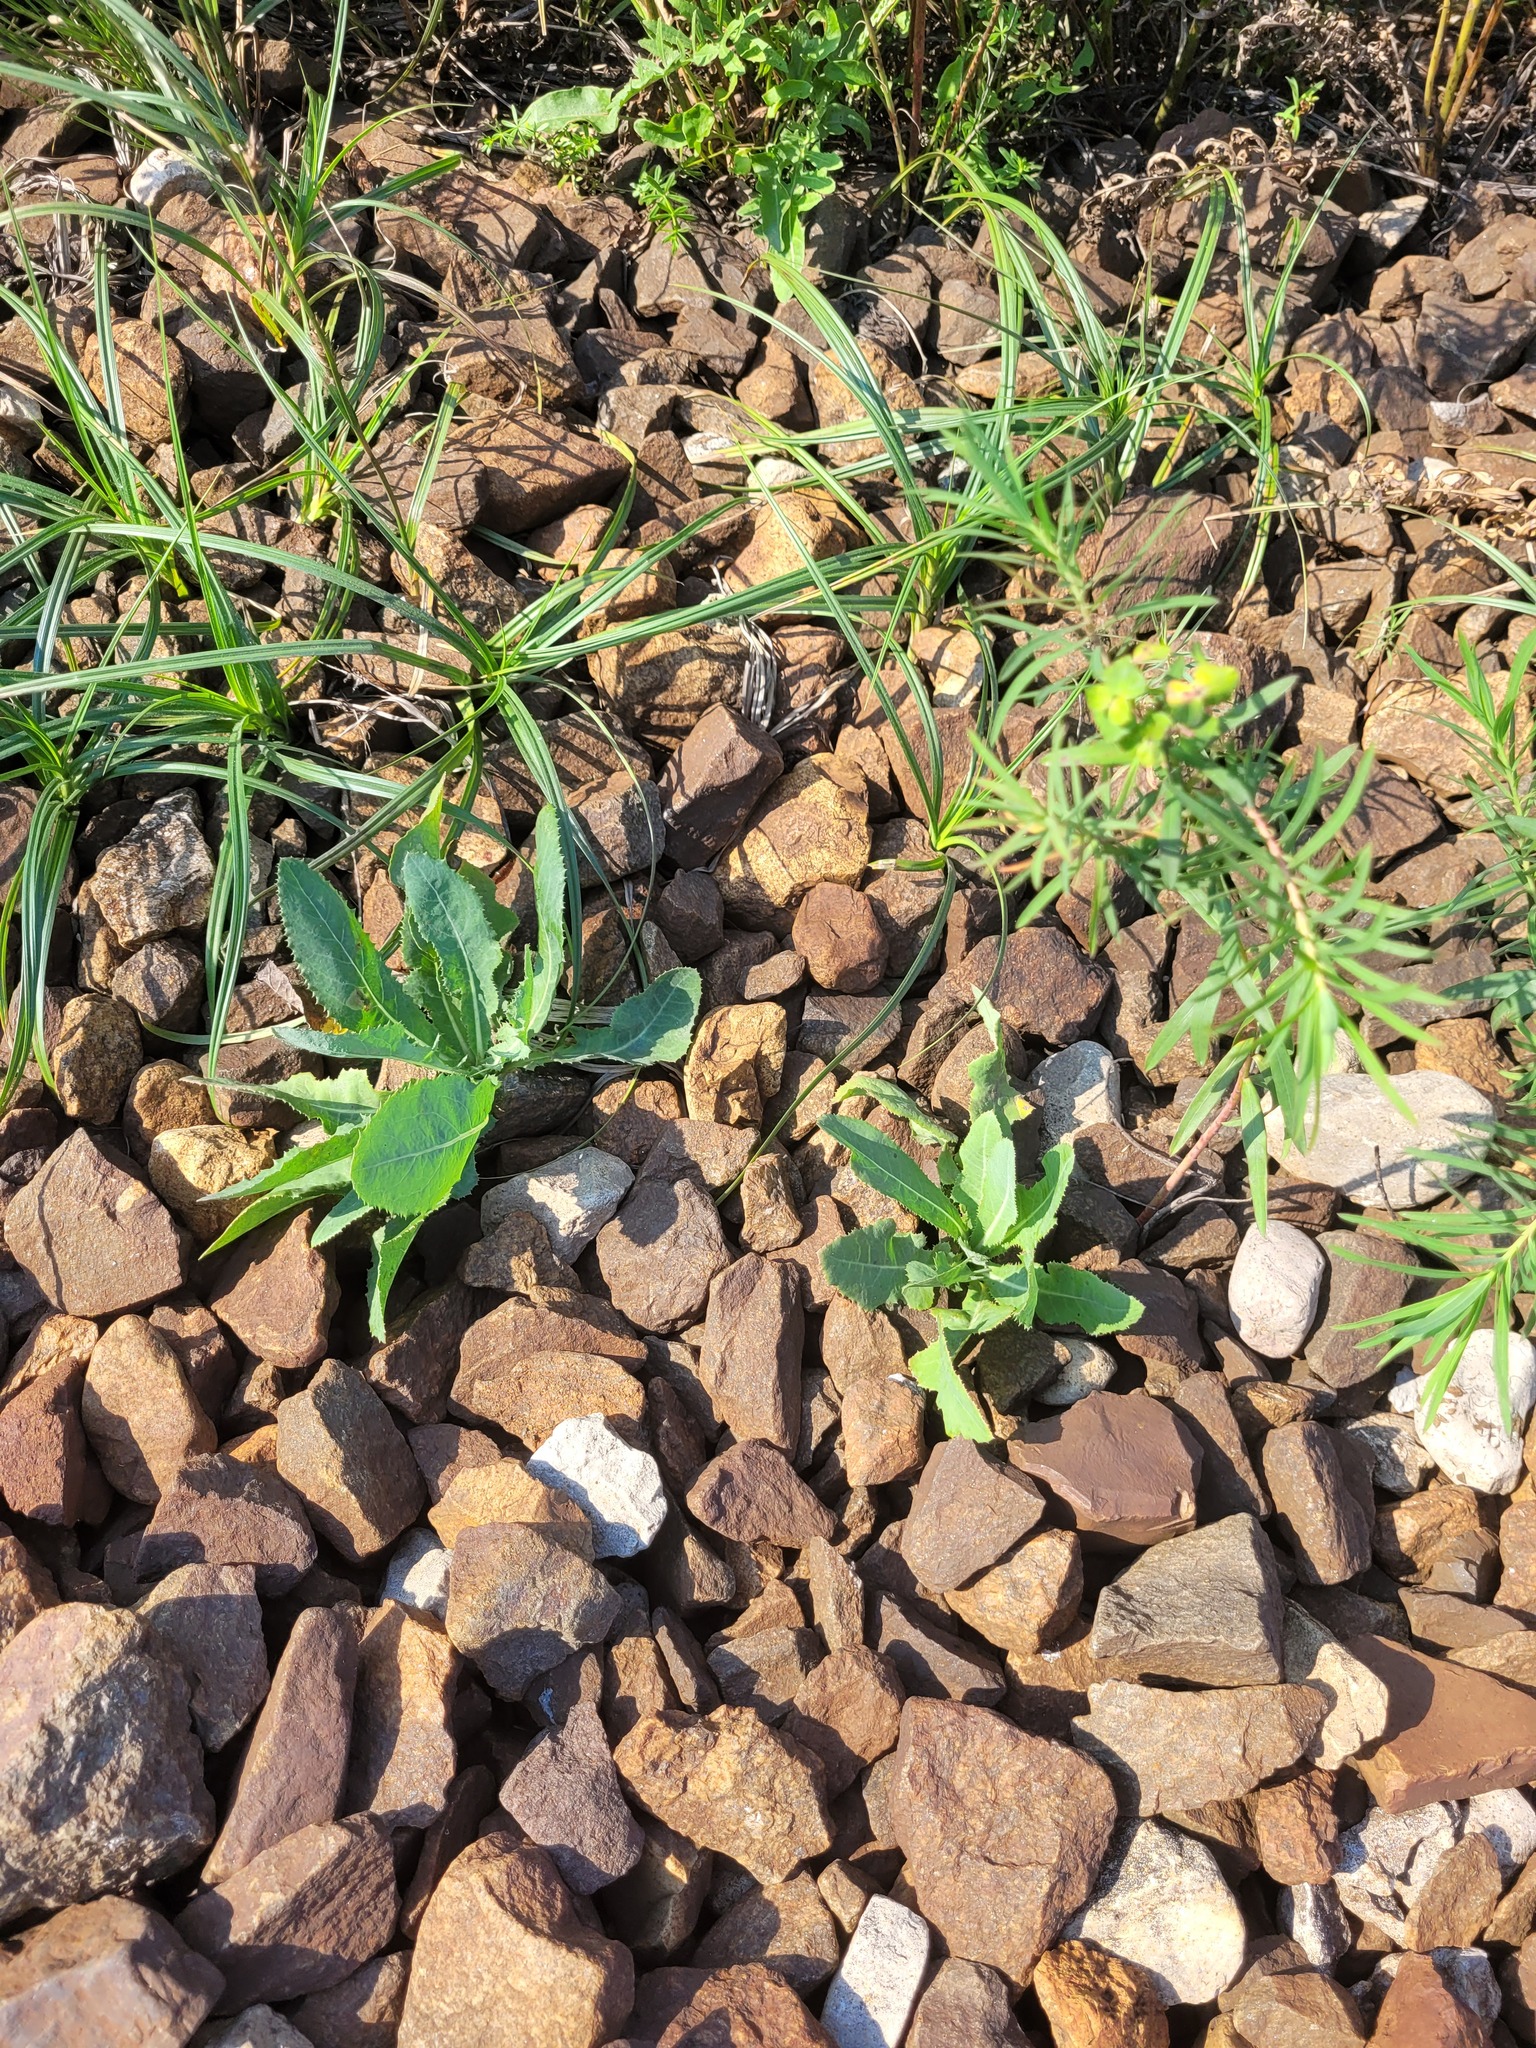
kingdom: Plantae
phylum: Tracheophyta
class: Magnoliopsida
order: Asterales
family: Asteraceae
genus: Sonchus
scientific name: Sonchus arvensis
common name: Perennial sow-thistle
